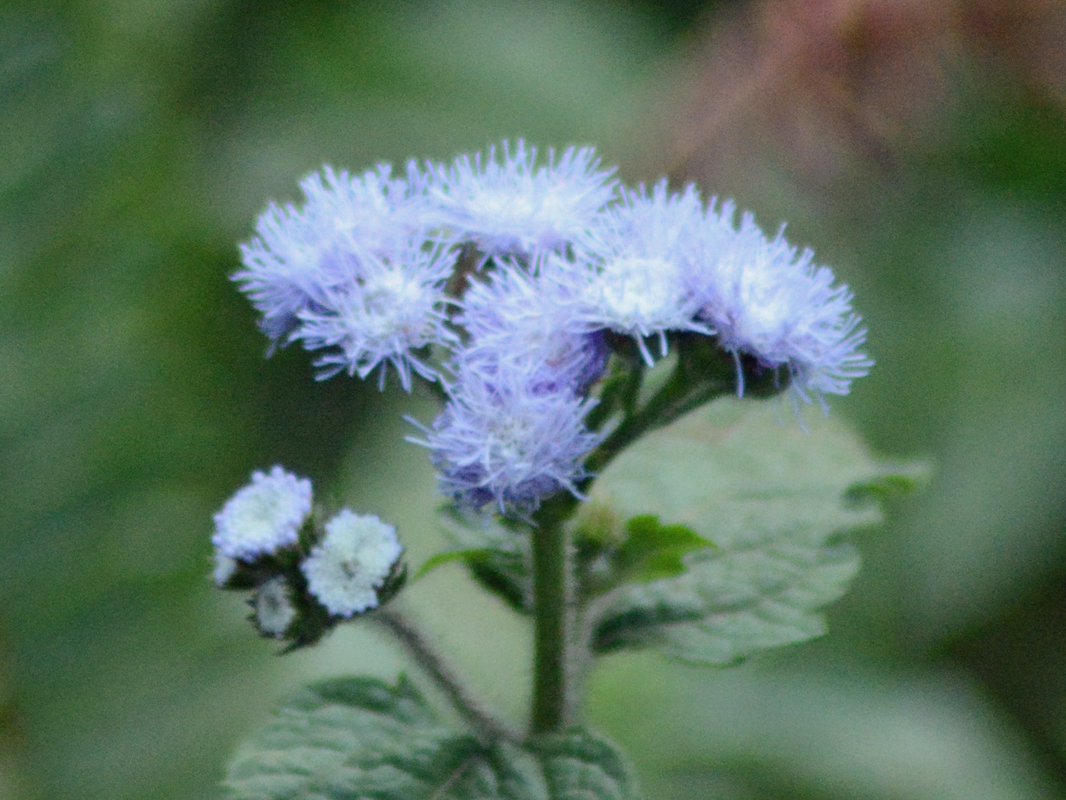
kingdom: Plantae
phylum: Tracheophyta
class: Magnoliopsida
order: Asterales
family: Asteraceae
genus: Ageratum
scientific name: Ageratum houstonianum
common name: Bluemink
